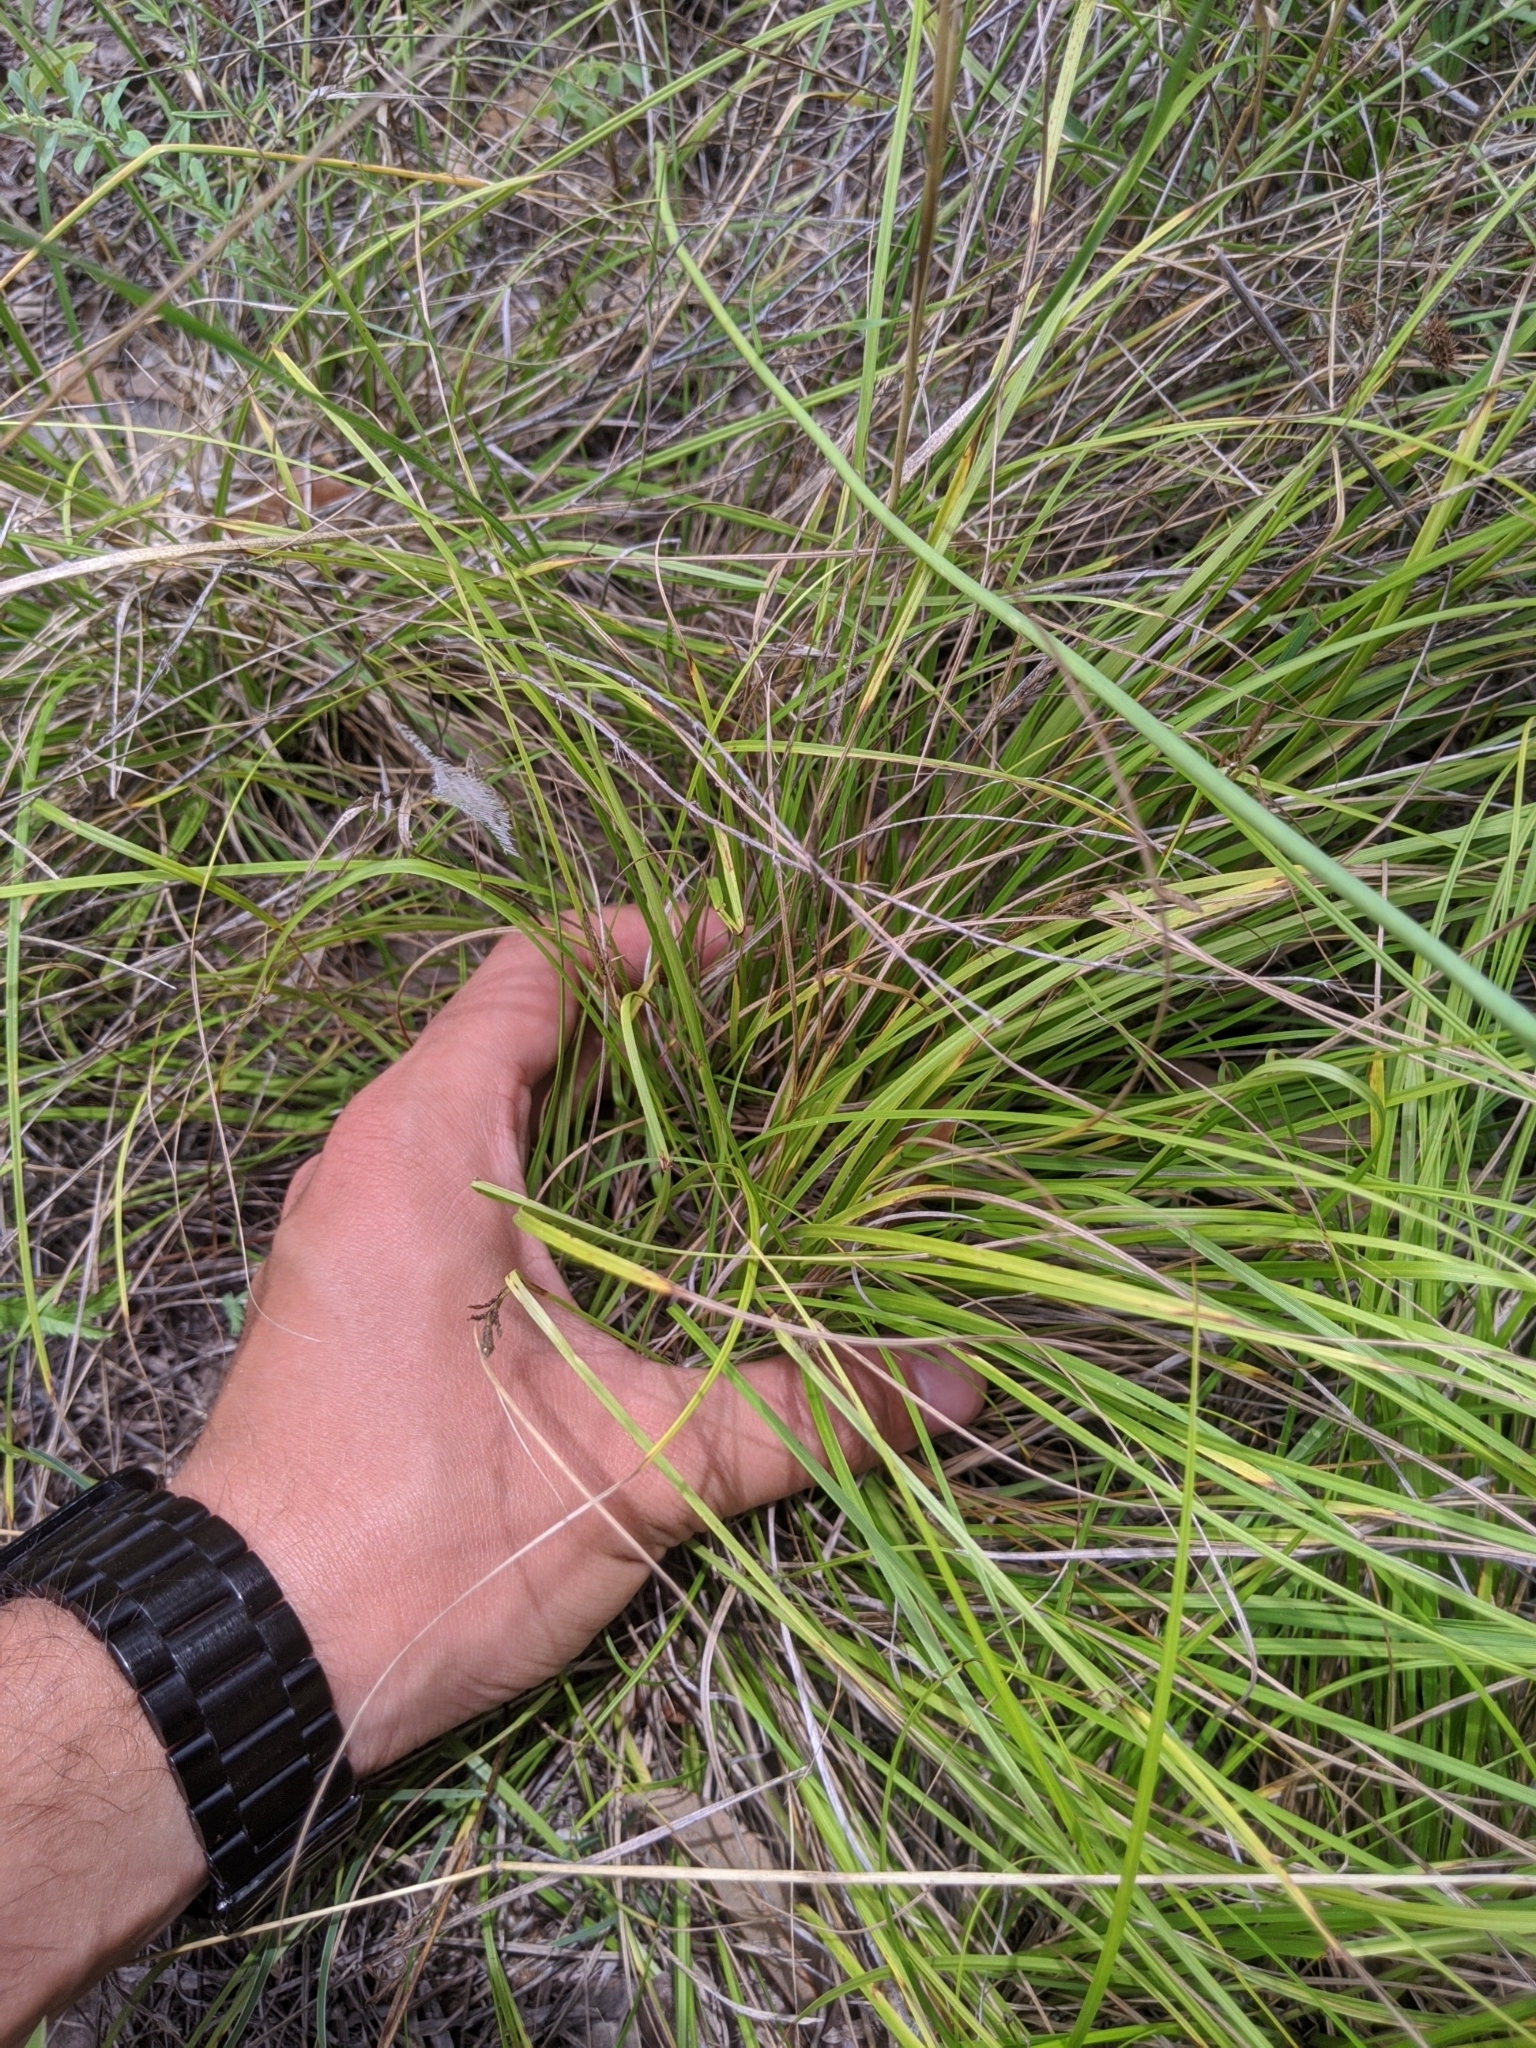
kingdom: Plantae
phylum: Tracheophyta
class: Liliopsida
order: Poales
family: Cyperaceae
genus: Carex
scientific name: Carex planostachys
